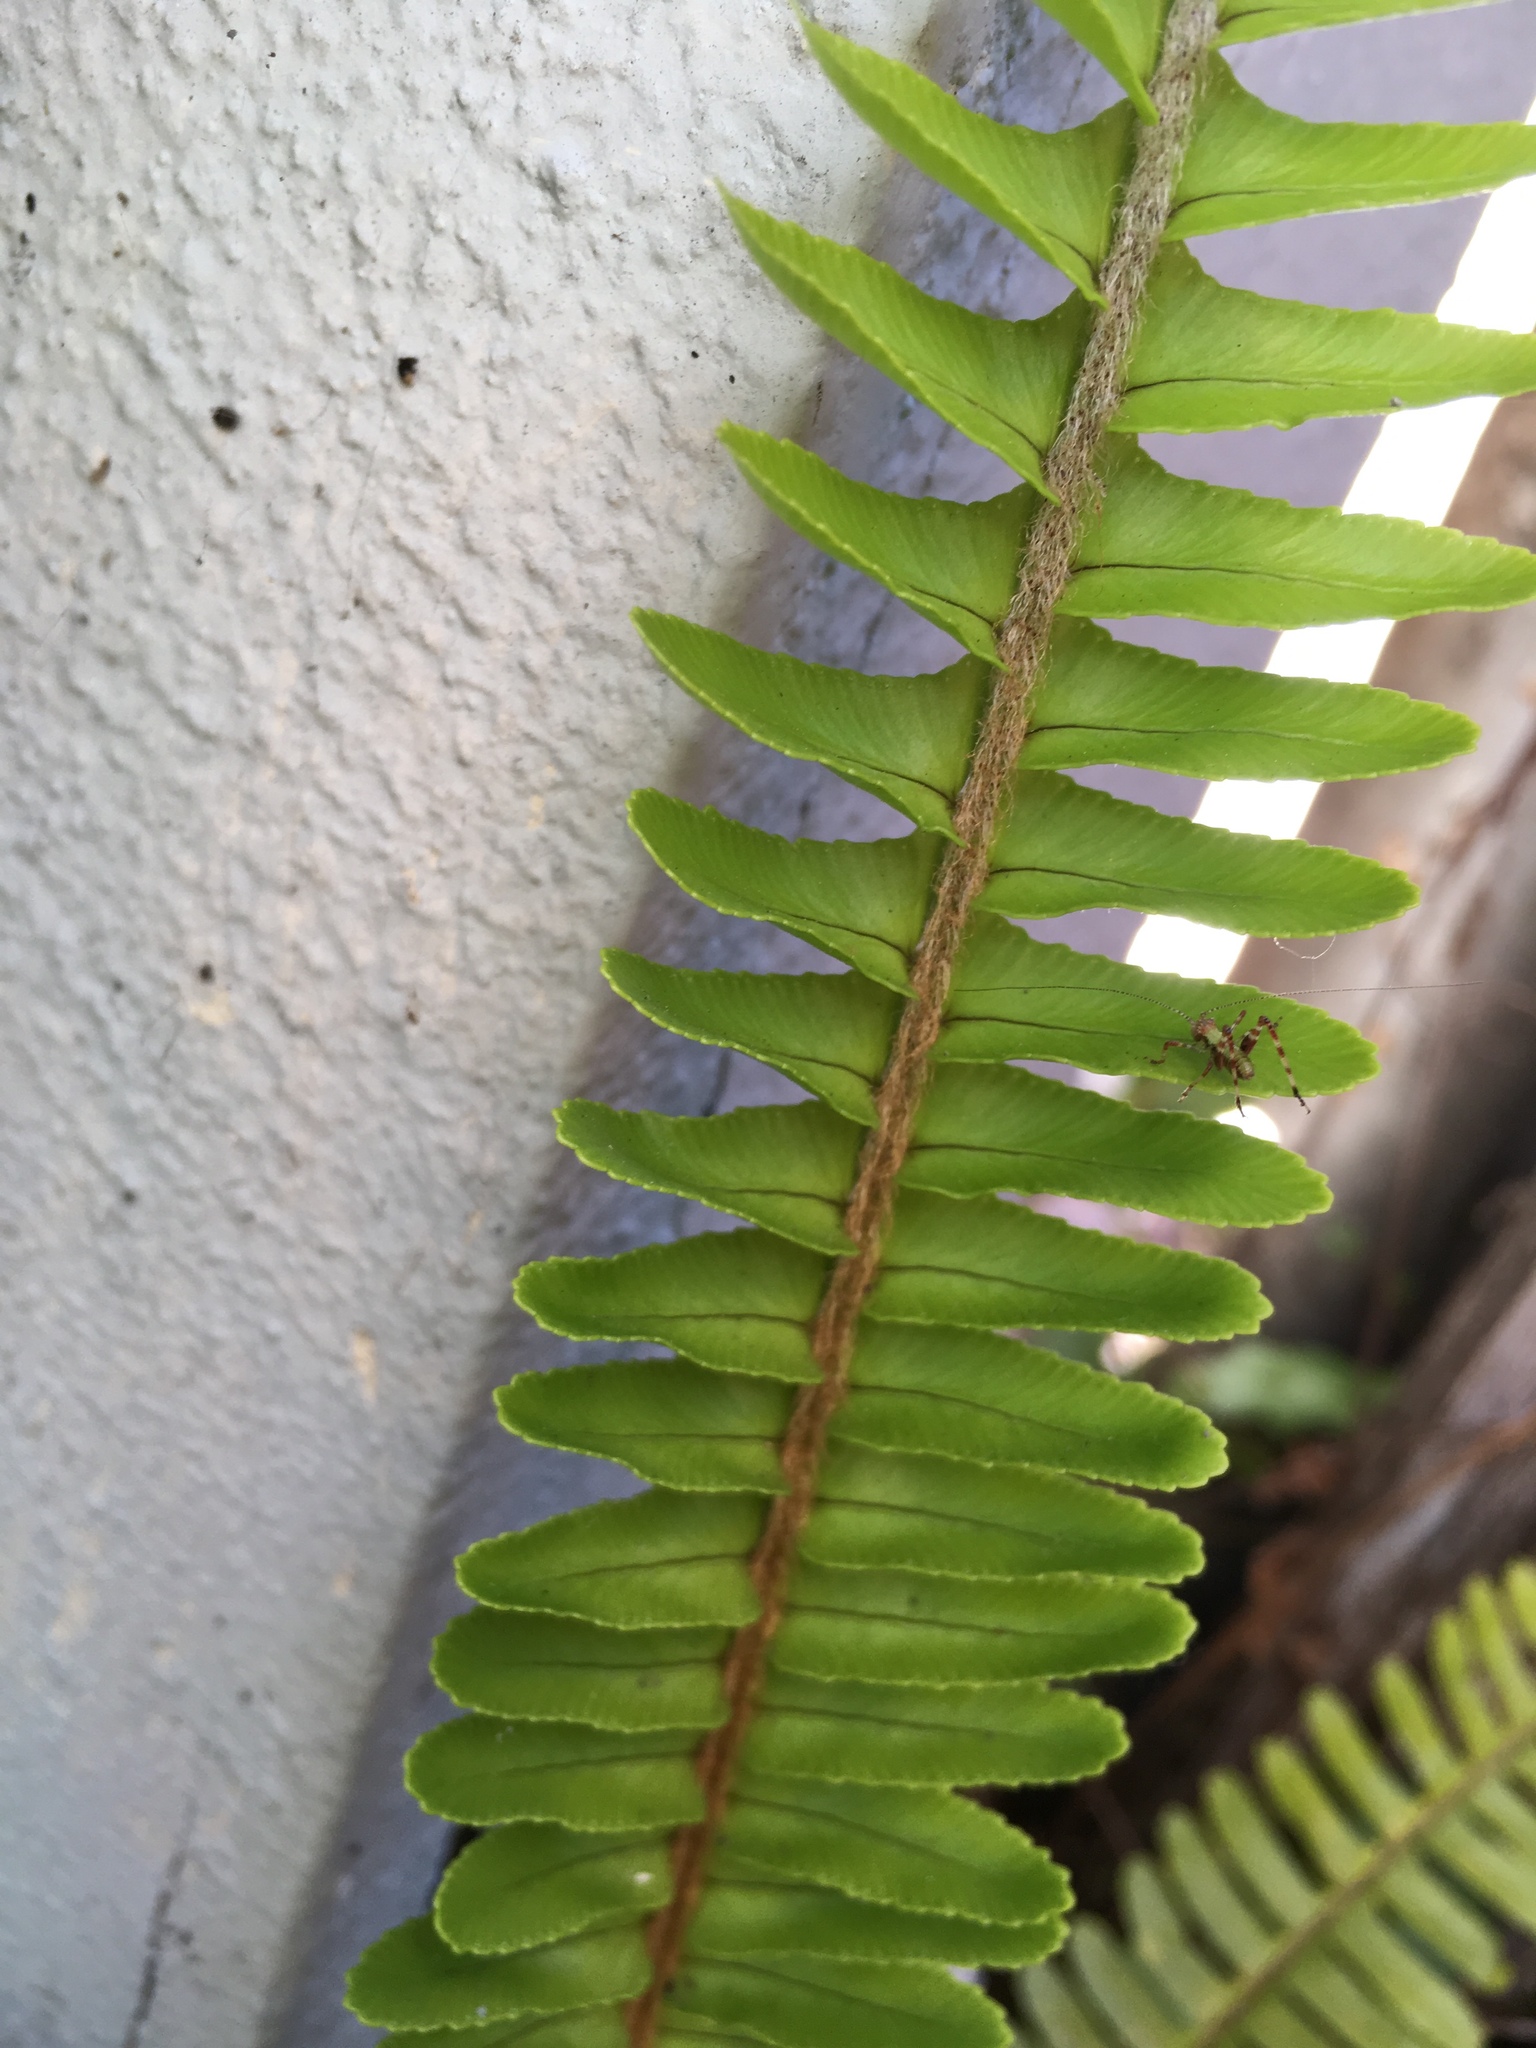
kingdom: Animalia
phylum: Arthropoda
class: Insecta
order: Orthoptera
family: Tettigoniidae
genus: Caedicia
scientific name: Caedicia simplex
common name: Common garden katydid
